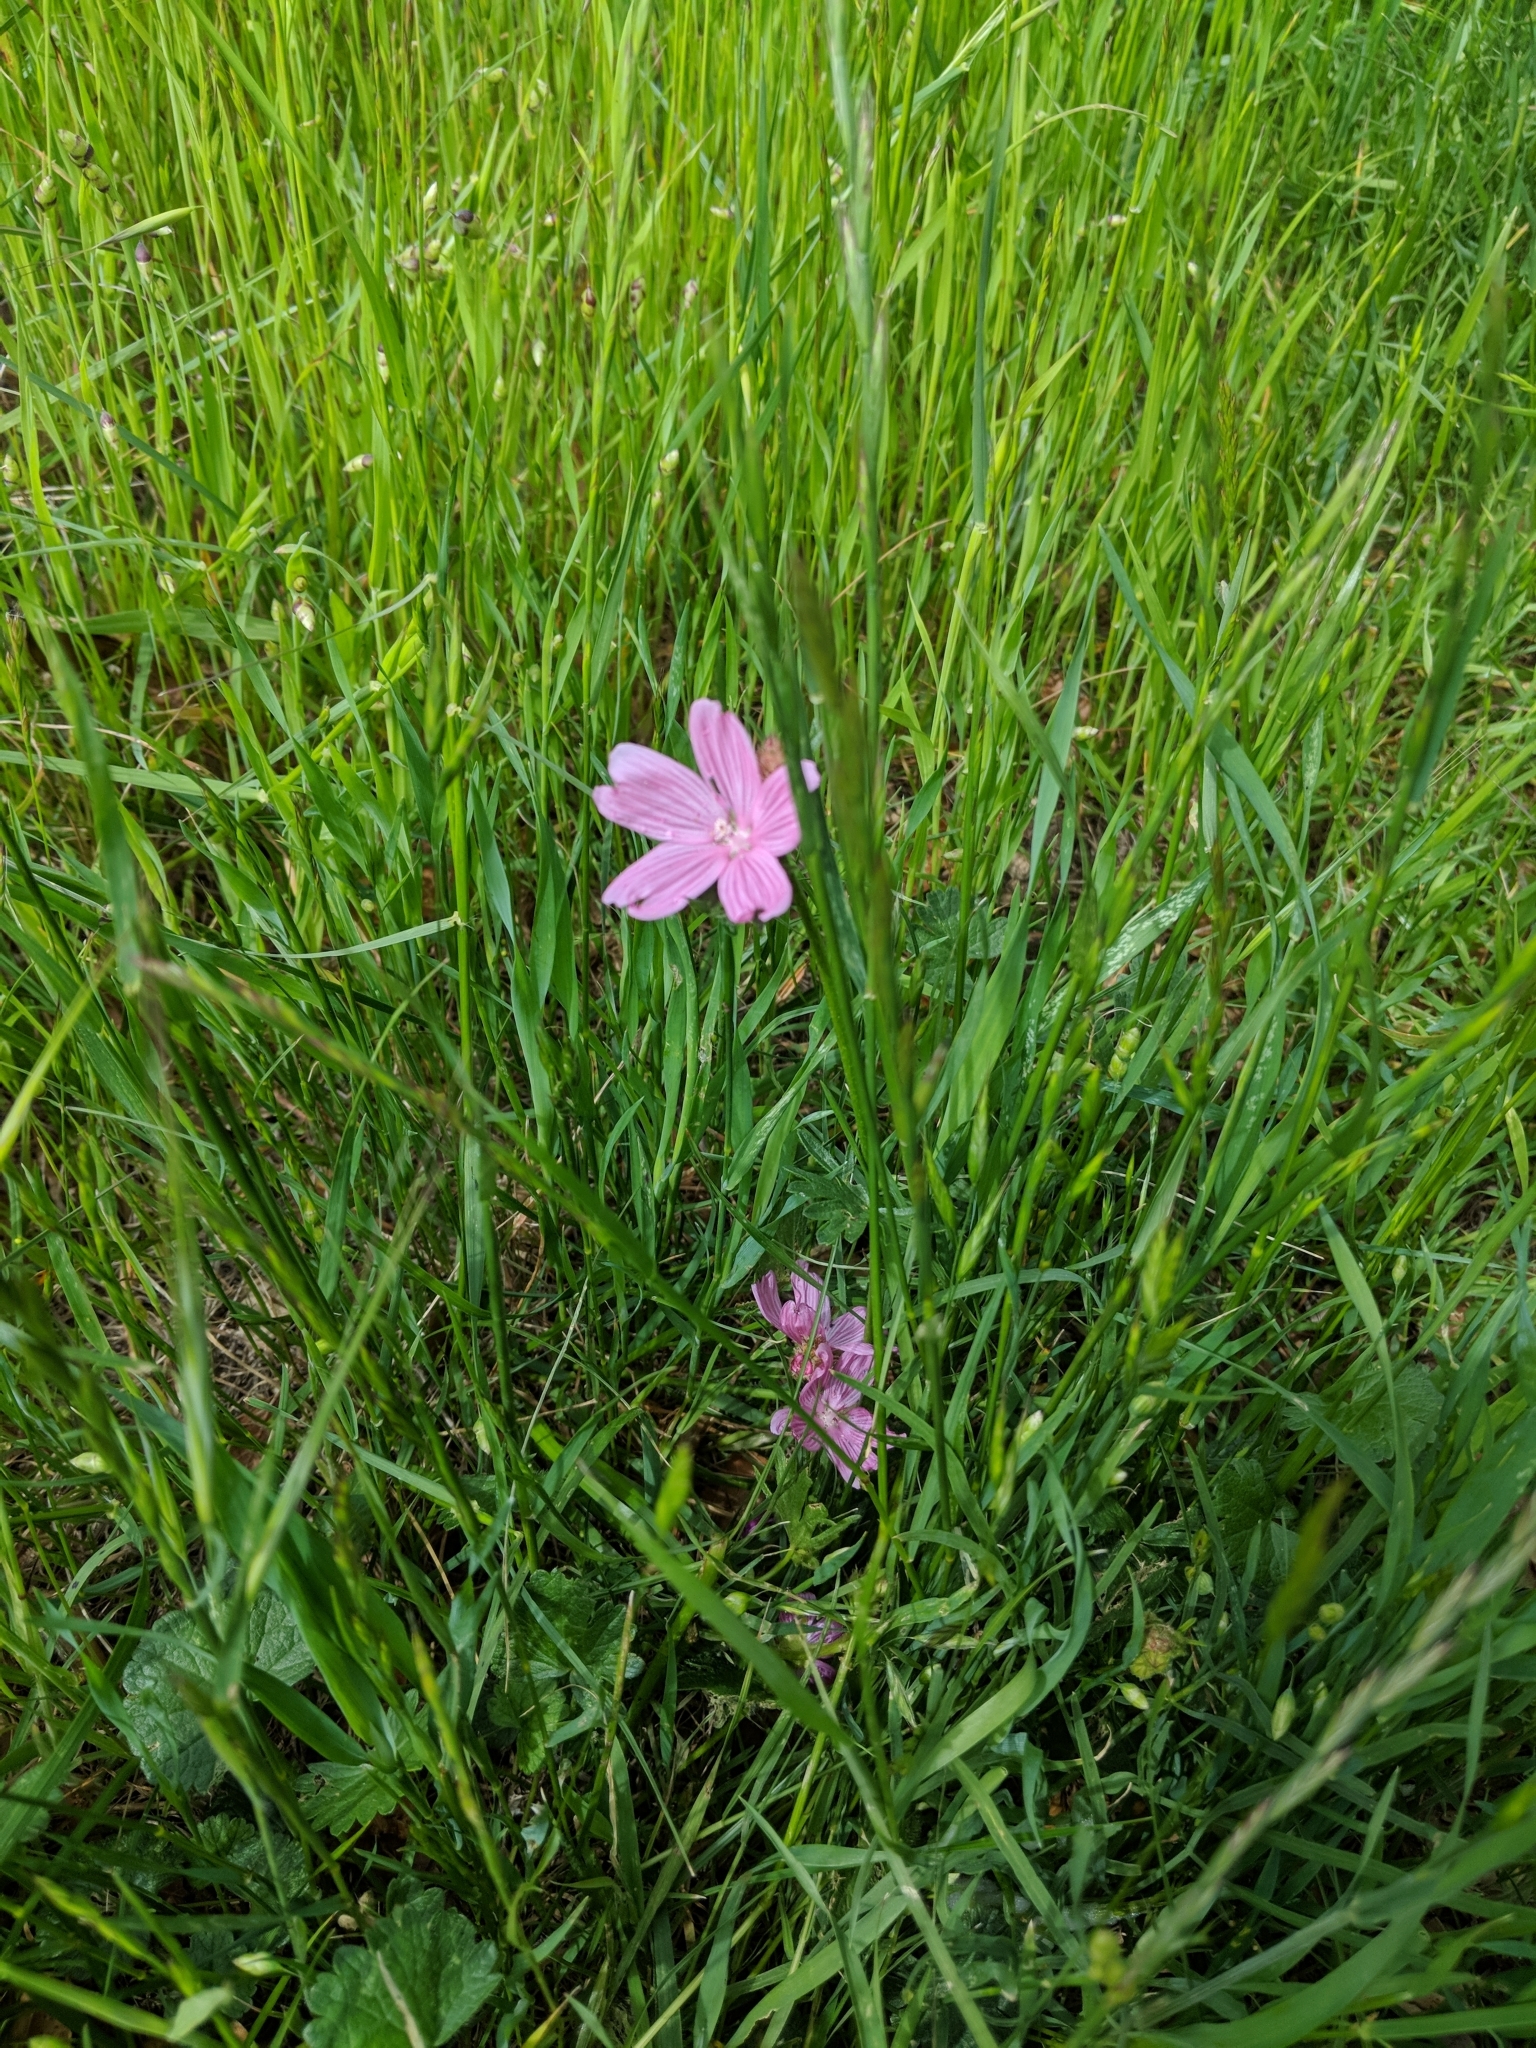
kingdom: Plantae
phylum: Tracheophyta
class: Magnoliopsida
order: Malvales
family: Malvaceae
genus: Sidalcea
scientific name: Sidalcea malviflora
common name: Greek mallow
